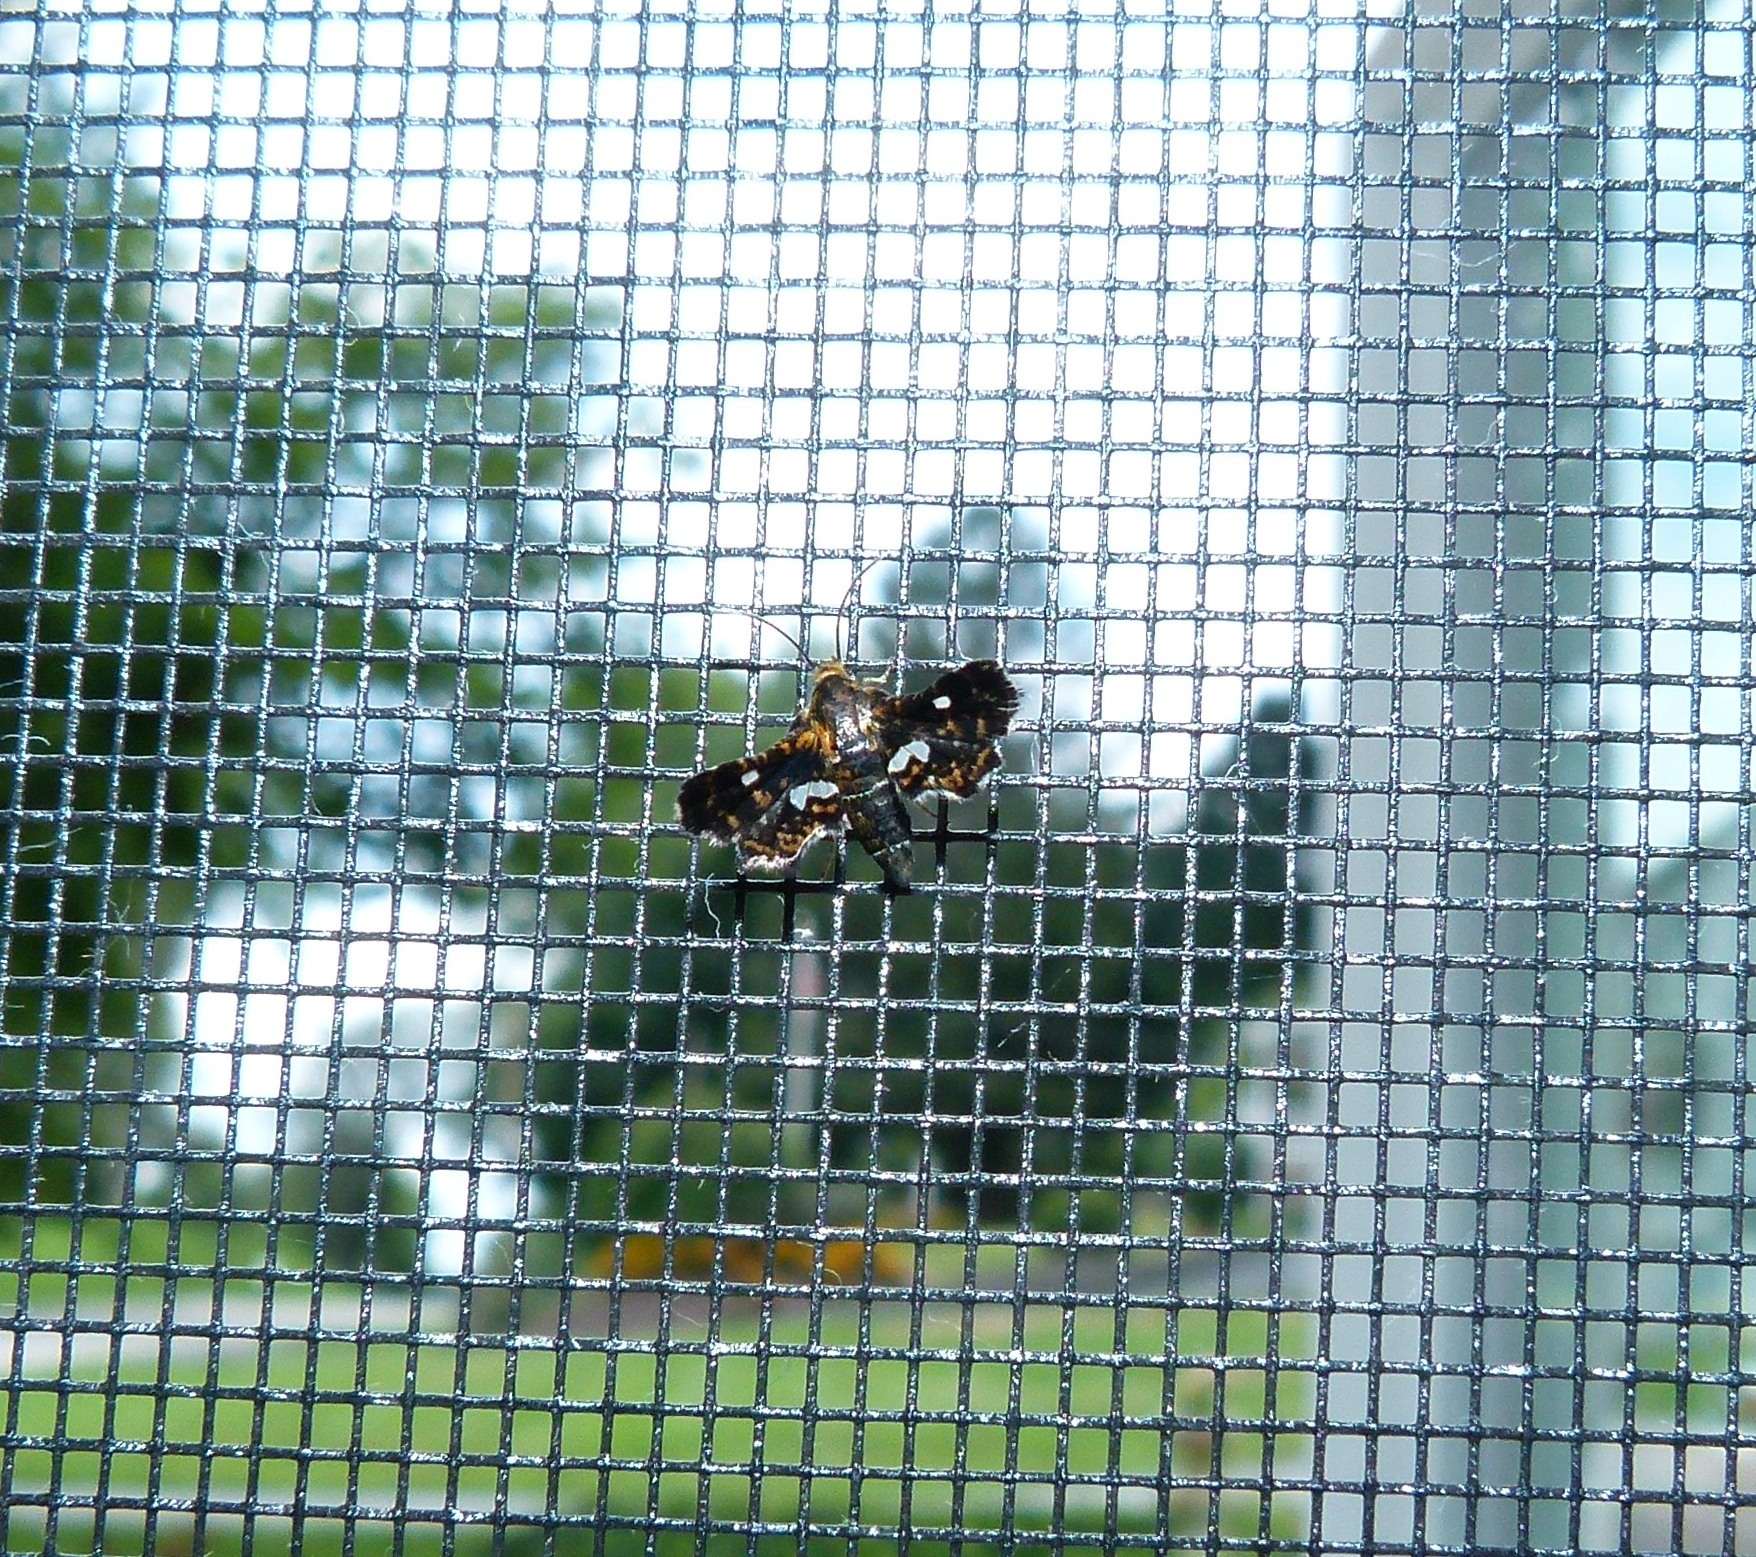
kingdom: Animalia
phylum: Arthropoda
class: Insecta
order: Lepidoptera
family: Thyrididae
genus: Thyris
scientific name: Thyris maculata
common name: Spotted thyris moth
